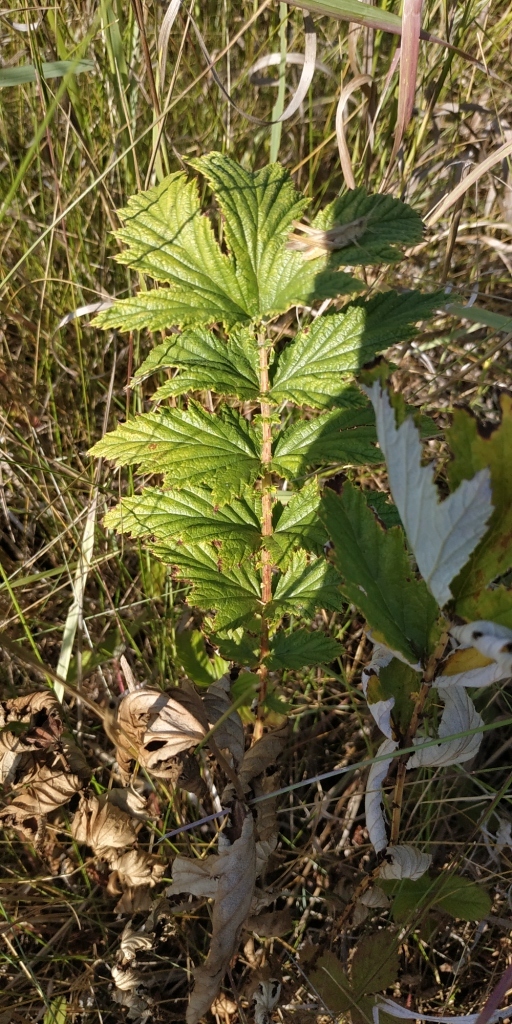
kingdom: Plantae
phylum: Tracheophyta
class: Magnoliopsida
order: Rosales
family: Rosaceae
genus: Filipendula
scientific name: Filipendula ulmaria
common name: Meadowsweet
